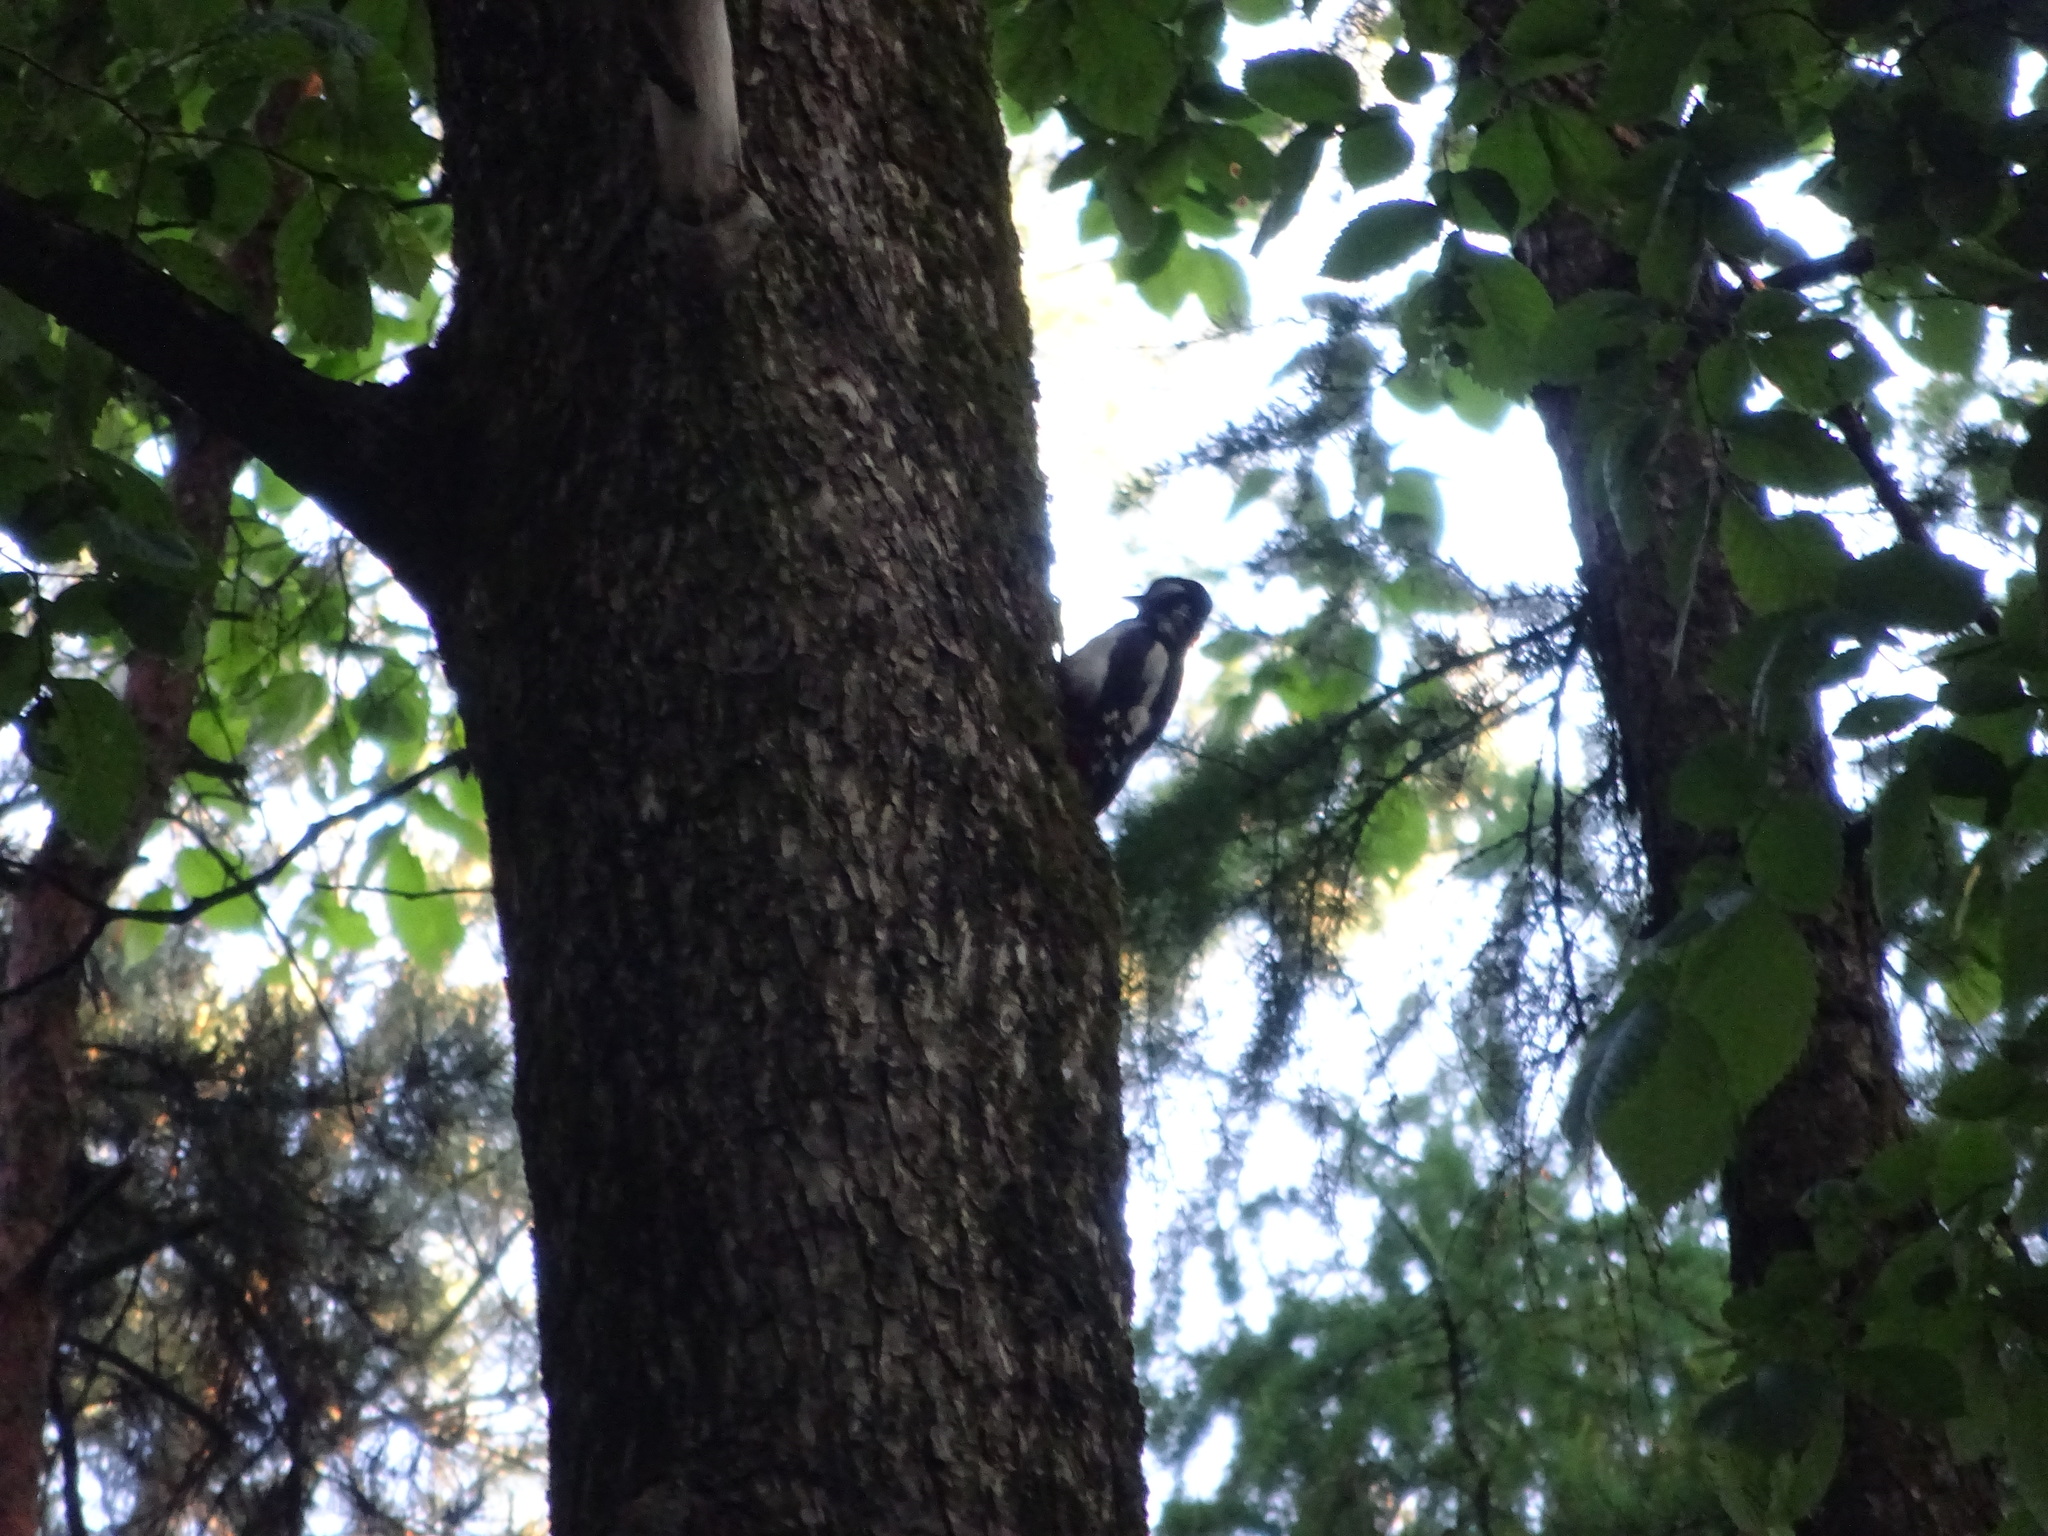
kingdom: Animalia
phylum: Chordata
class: Aves
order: Piciformes
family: Picidae
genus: Dendrocopos
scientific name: Dendrocopos major
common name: Great spotted woodpecker
